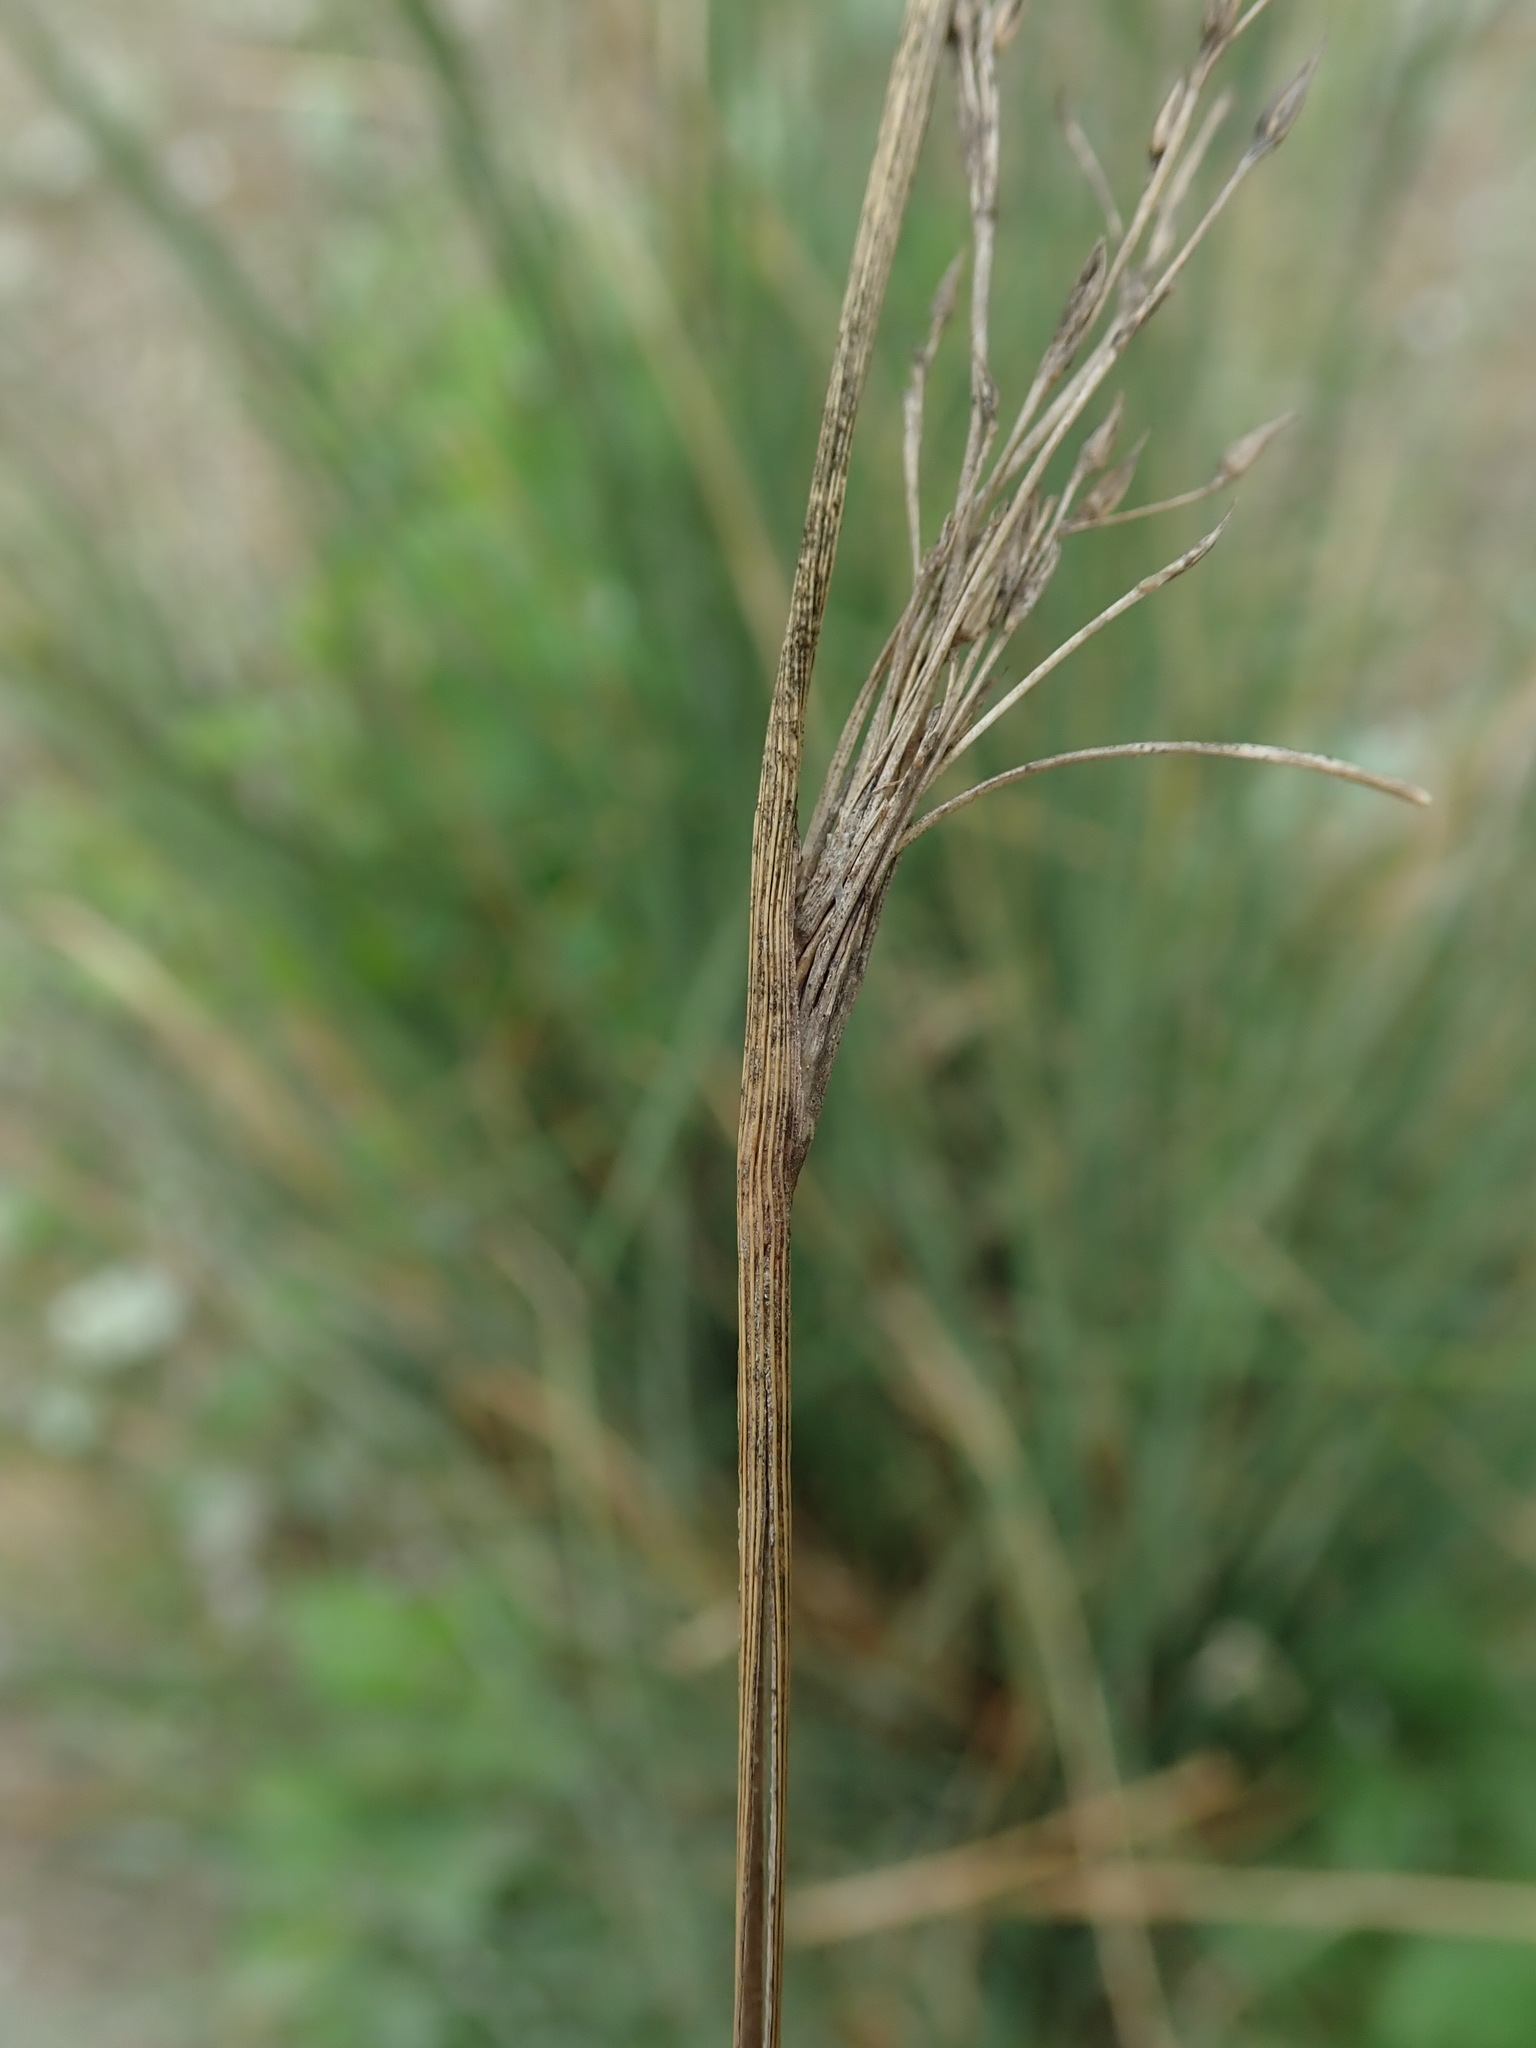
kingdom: Plantae
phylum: Tracheophyta
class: Liliopsida
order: Poales
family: Juncaceae
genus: Juncus
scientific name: Juncus inflexus
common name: Hard rush
